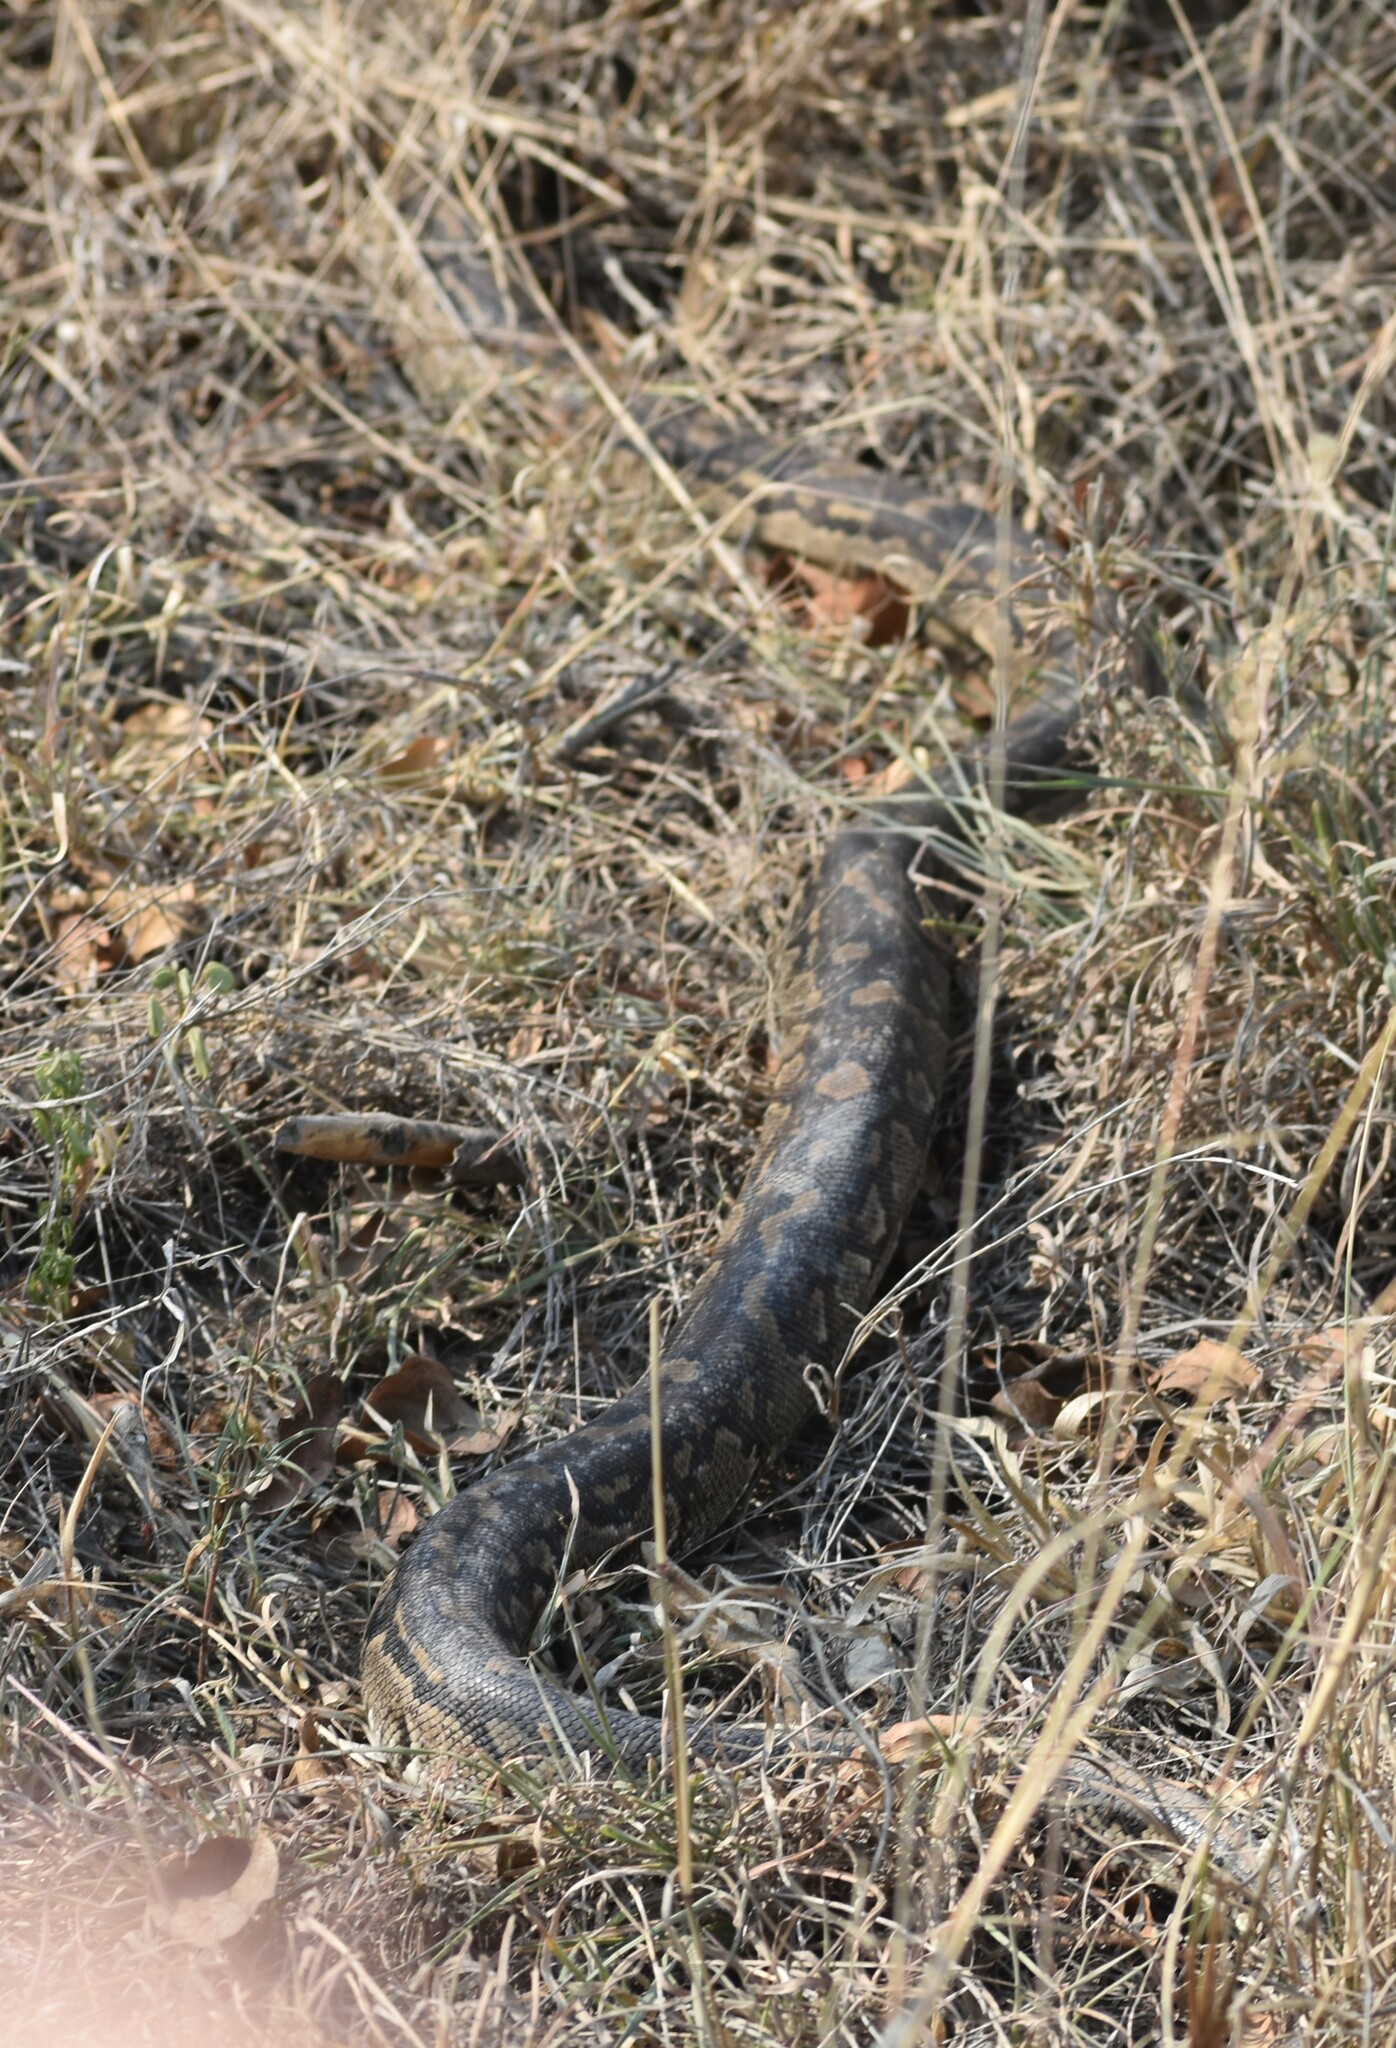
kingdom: Animalia
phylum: Chordata
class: Squamata
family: Pythonidae
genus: Python
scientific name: Python natalensis
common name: Southern african rock python
